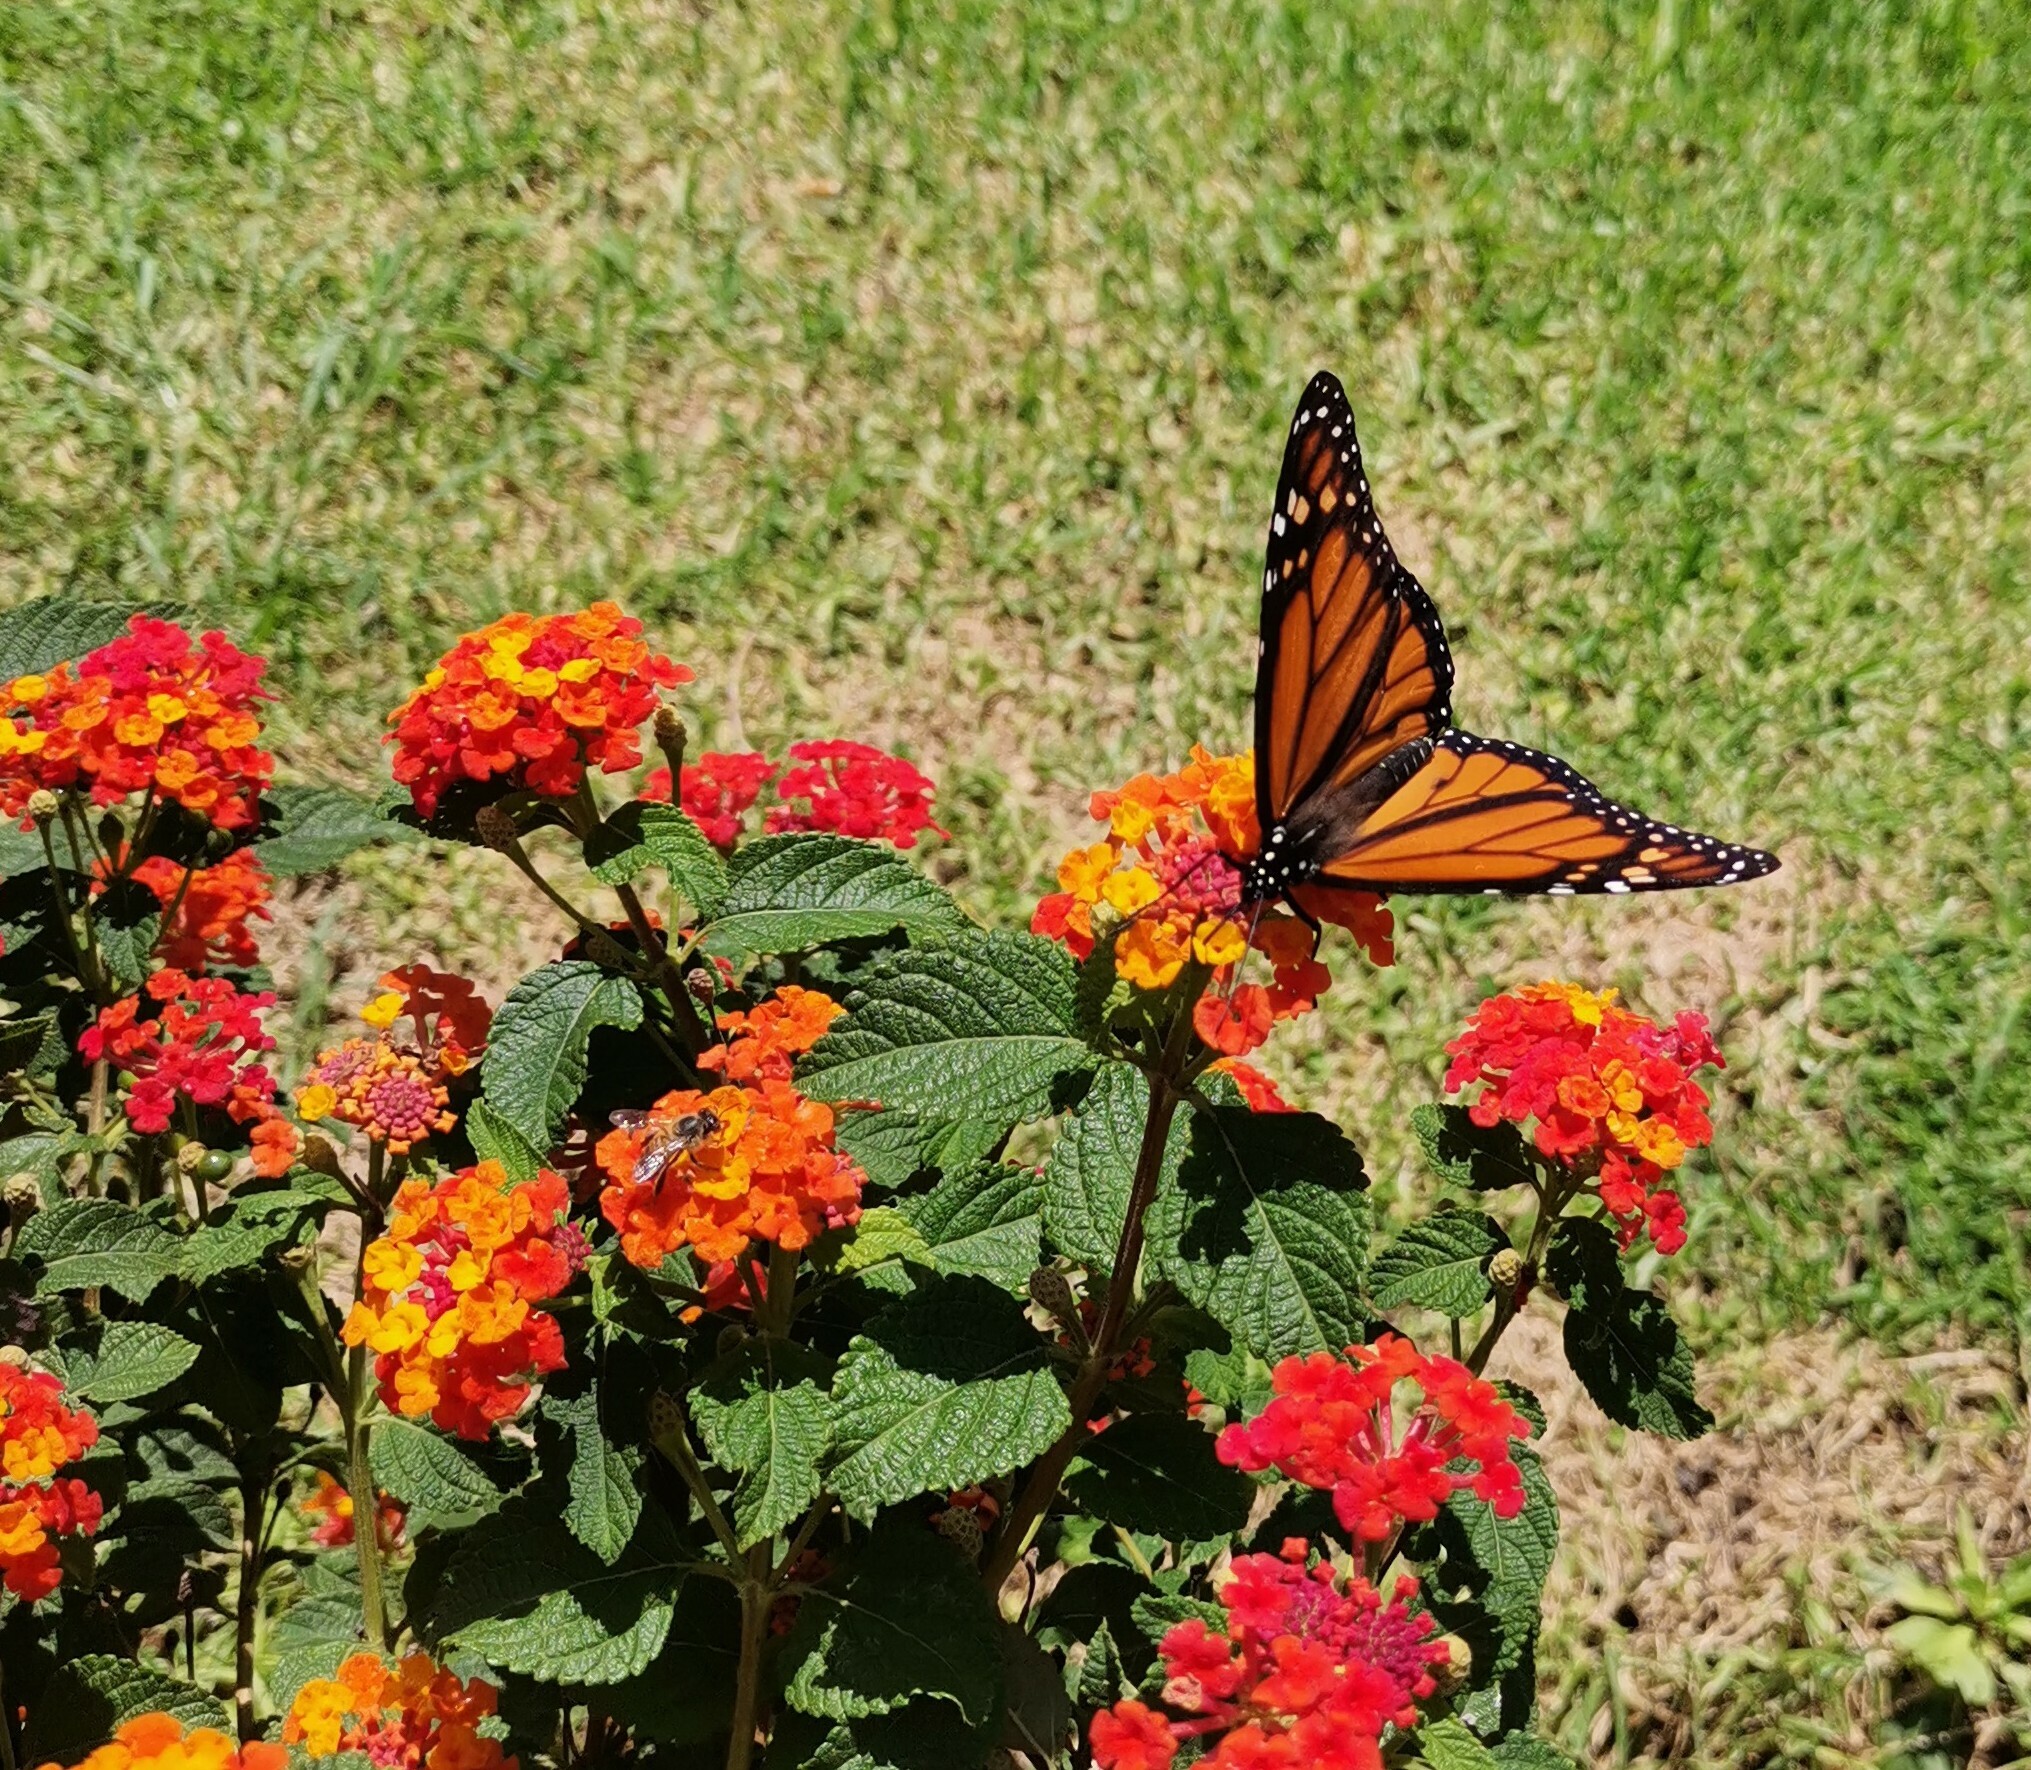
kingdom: Animalia
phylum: Arthropoda
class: Insecta
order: Lepidoptera
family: Nymphalidae
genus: Danaus
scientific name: Danaus plexippus
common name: Monarch
